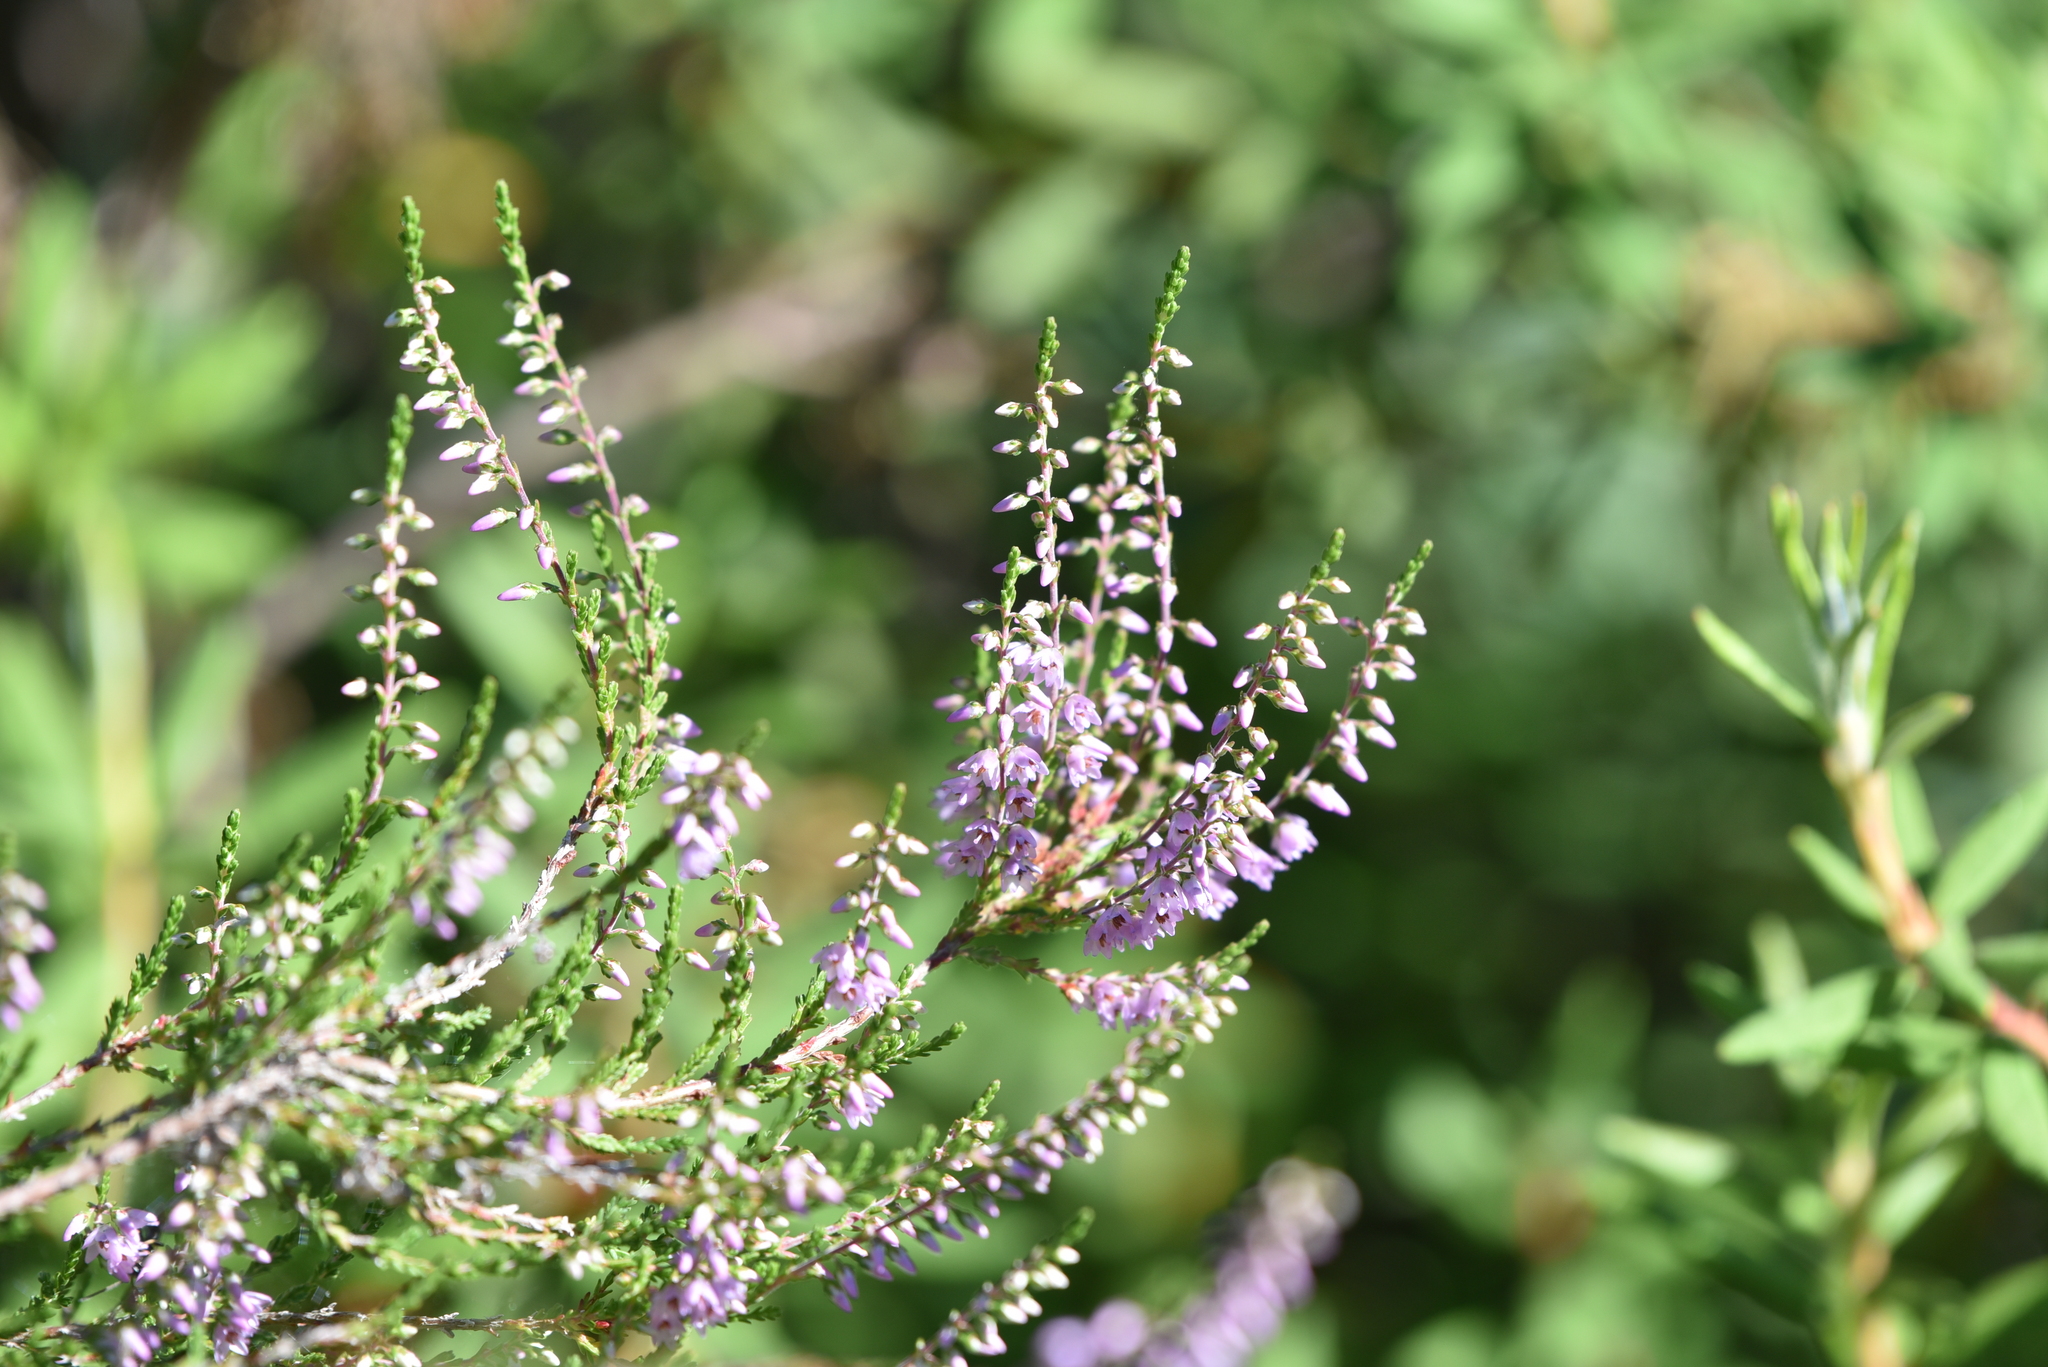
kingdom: Plantae
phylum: Tracheophyta
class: Magnoliopsida
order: Ericales
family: Ericaceae
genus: Calluna
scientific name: Calluna vulgaris
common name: Heather
